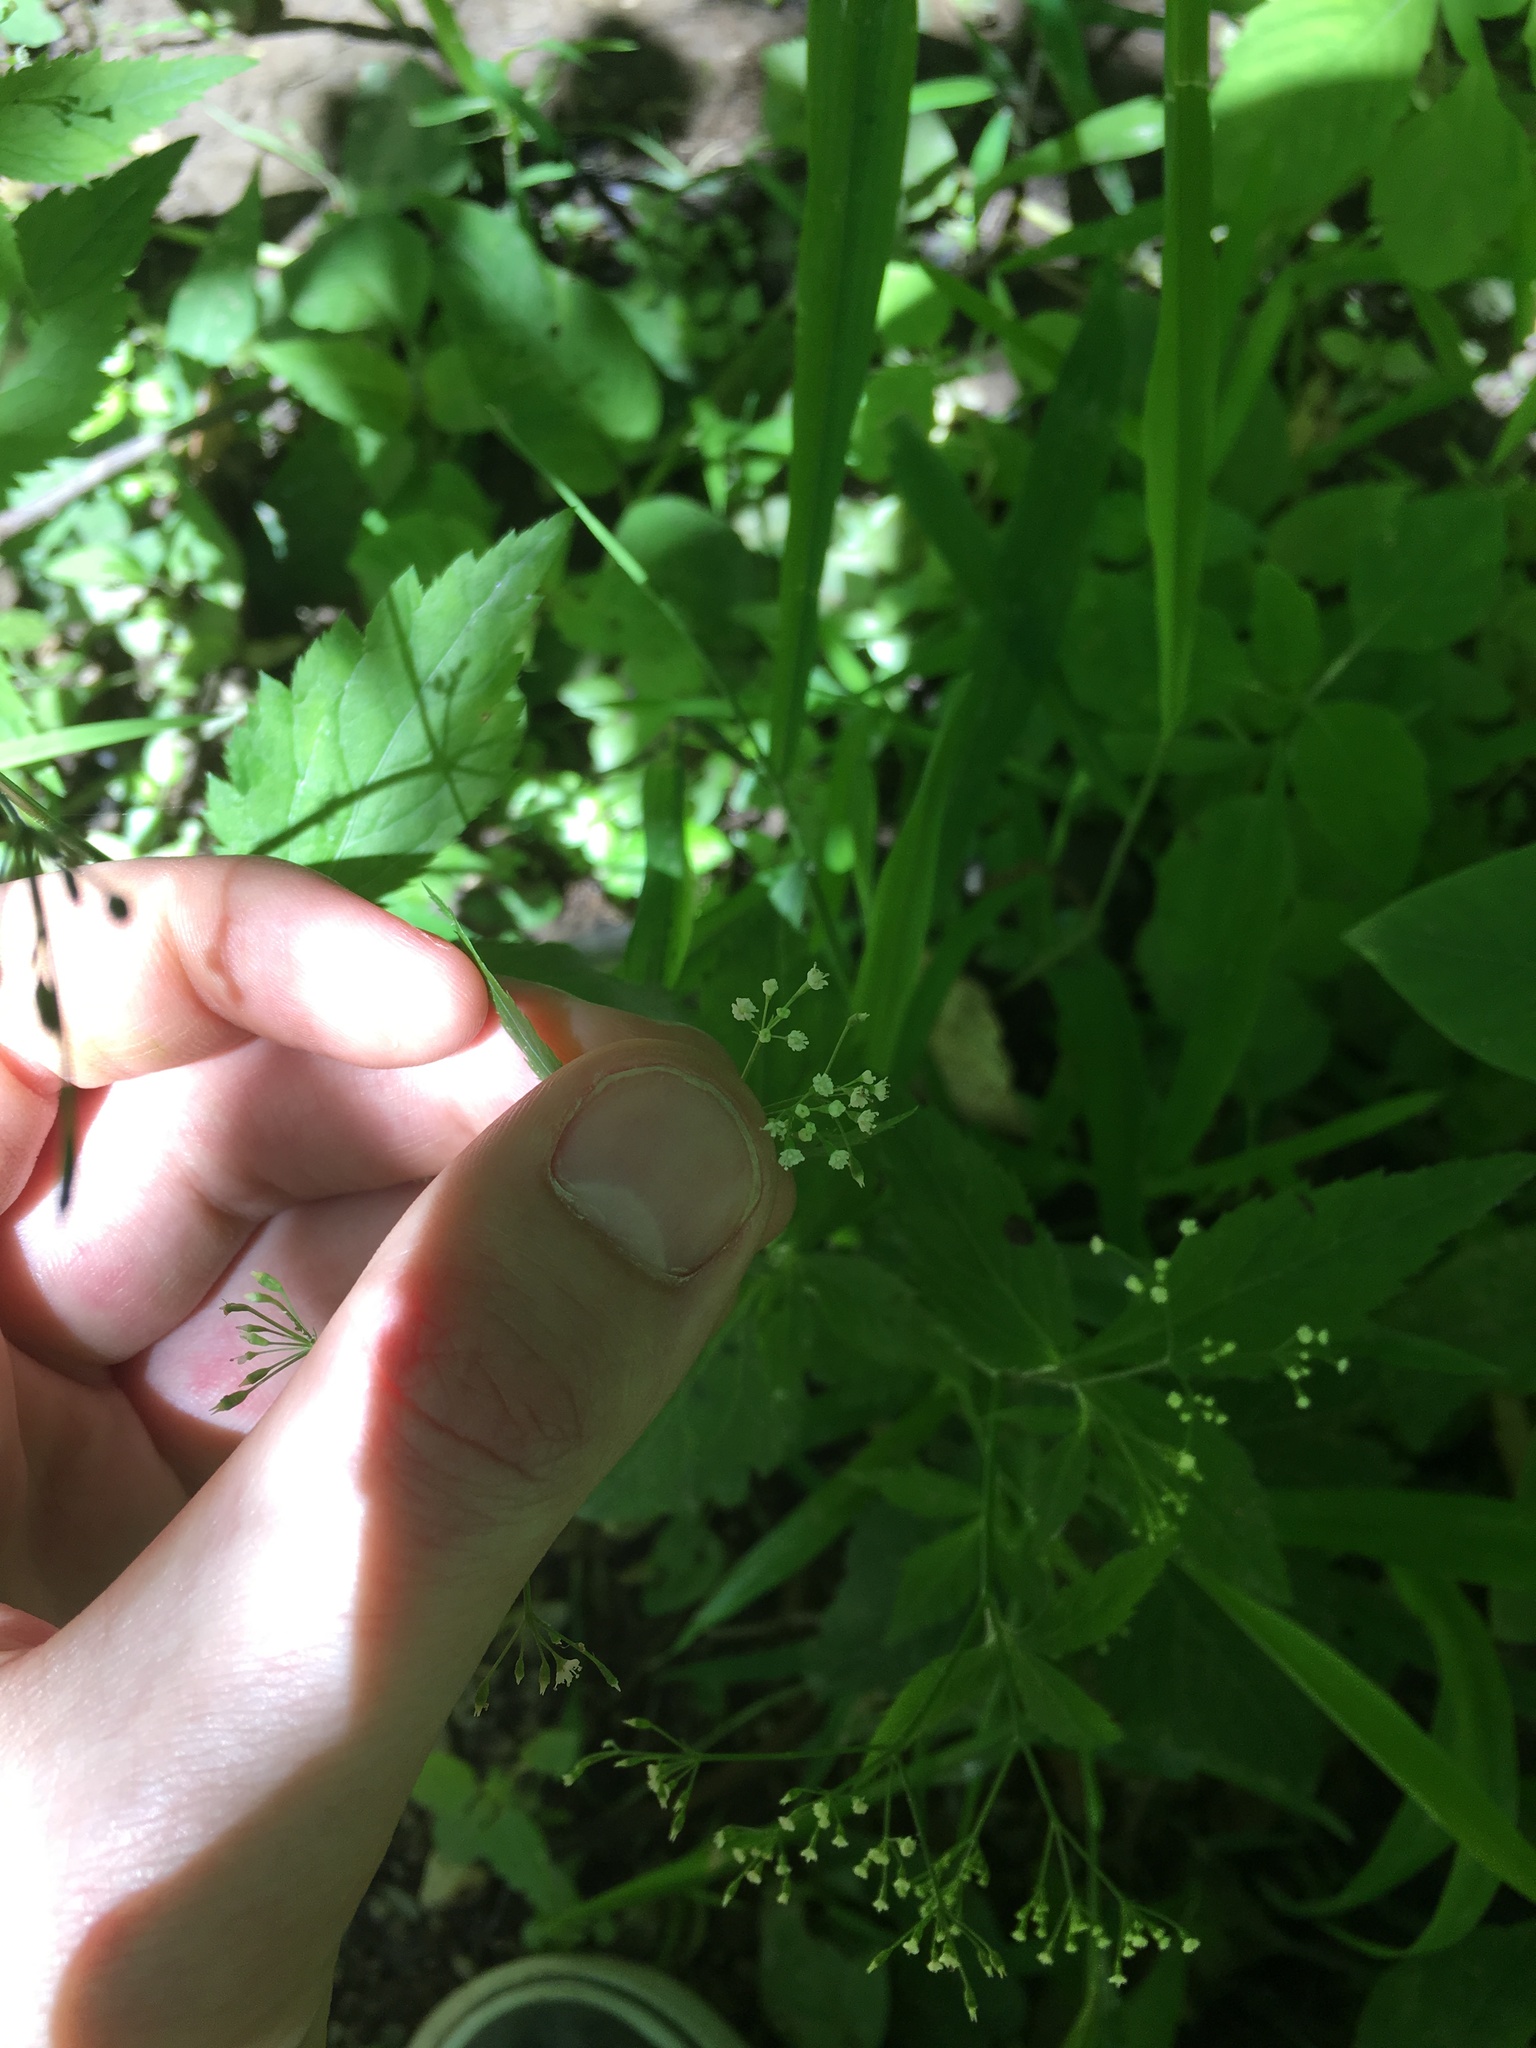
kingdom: Plantae
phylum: Tracheophyta
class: Magnoliopsida
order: Apiales
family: Apiaceae
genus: Cryptotaenia
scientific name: Cryptotaenia canadensis
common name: Honewort
